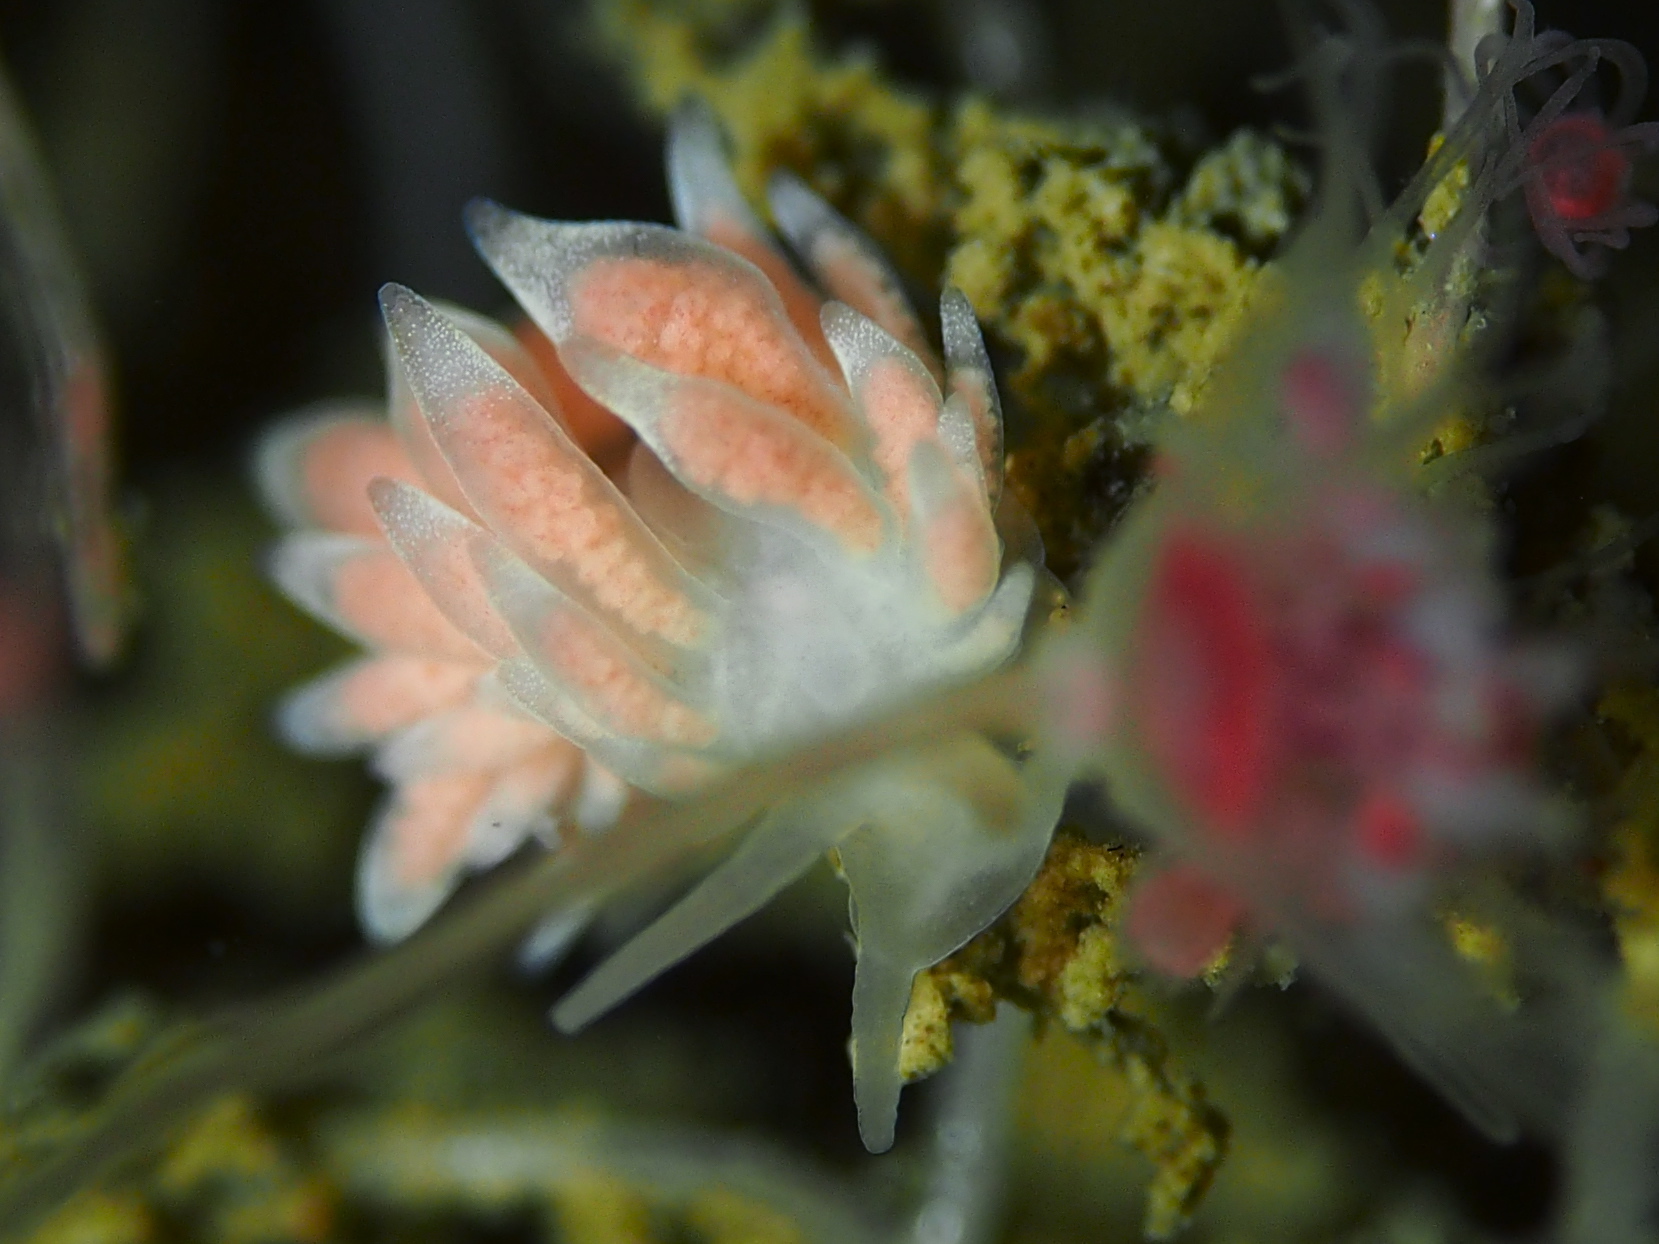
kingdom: Animalia
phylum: Mollusca
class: Gastropoda
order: Nudibranchia
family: Trinchesiidae
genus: Catriona
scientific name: Catriona aurantia
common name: Corange-tip cuthona
